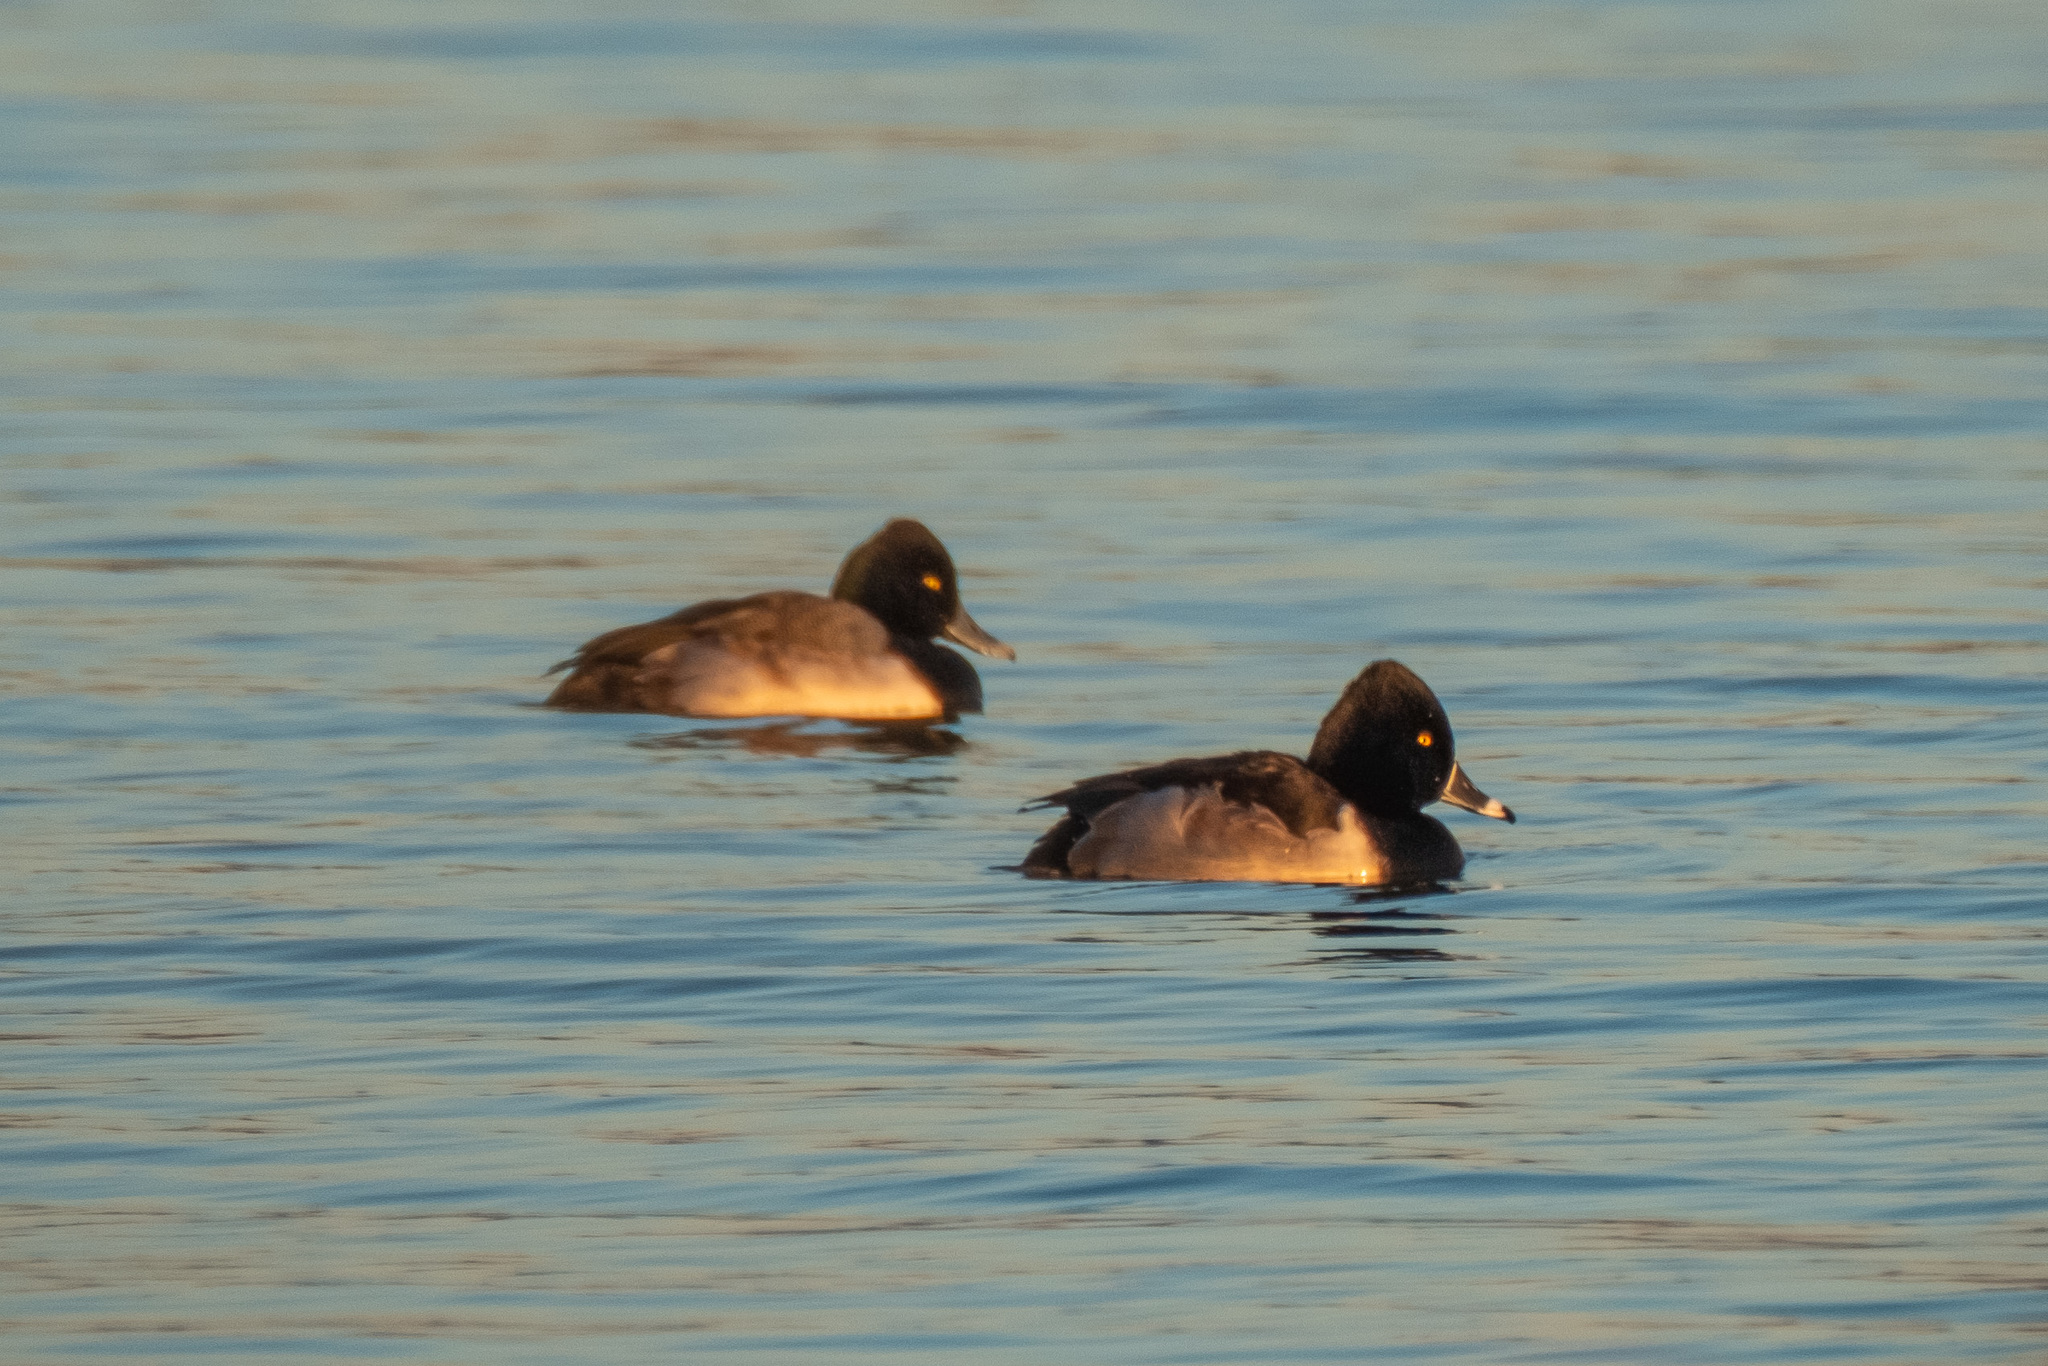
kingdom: Animalia
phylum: Chordata
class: Aves
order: Anseriformes
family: Anatidae
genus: Aythya
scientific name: Aythya affinis
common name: Lesser scaup
